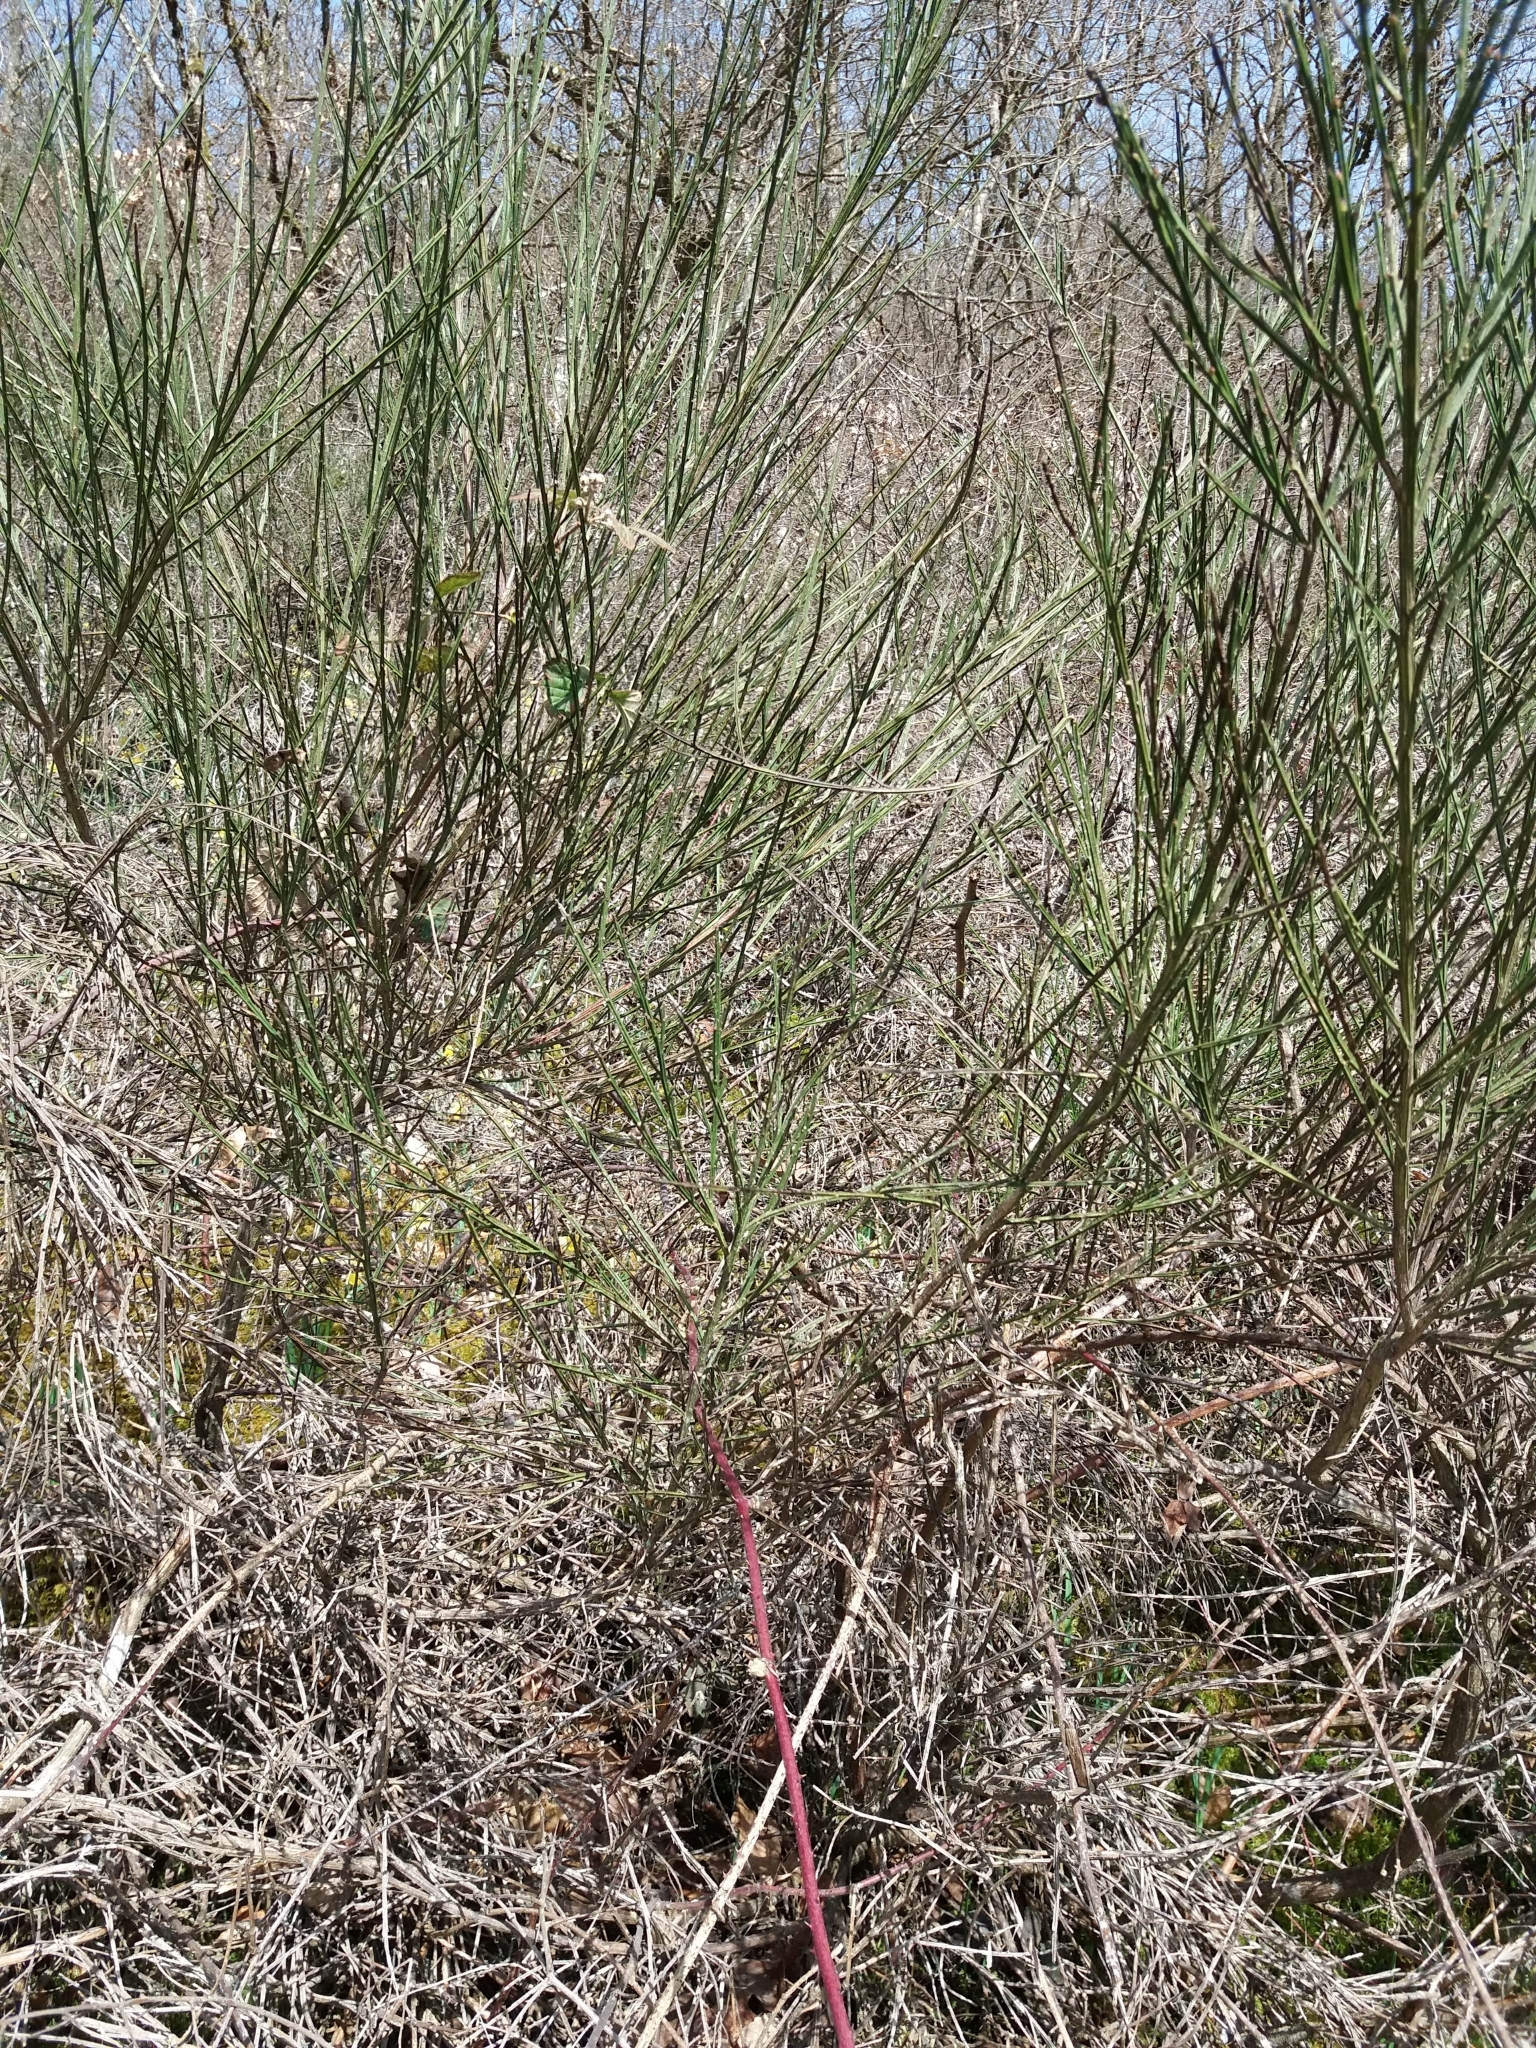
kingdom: Plantae
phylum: Tracheophyta
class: Magnoliopsida
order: Fabales
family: Fabaceae
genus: Cytisus
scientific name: Cytisus scoparius
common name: Scotch broom
